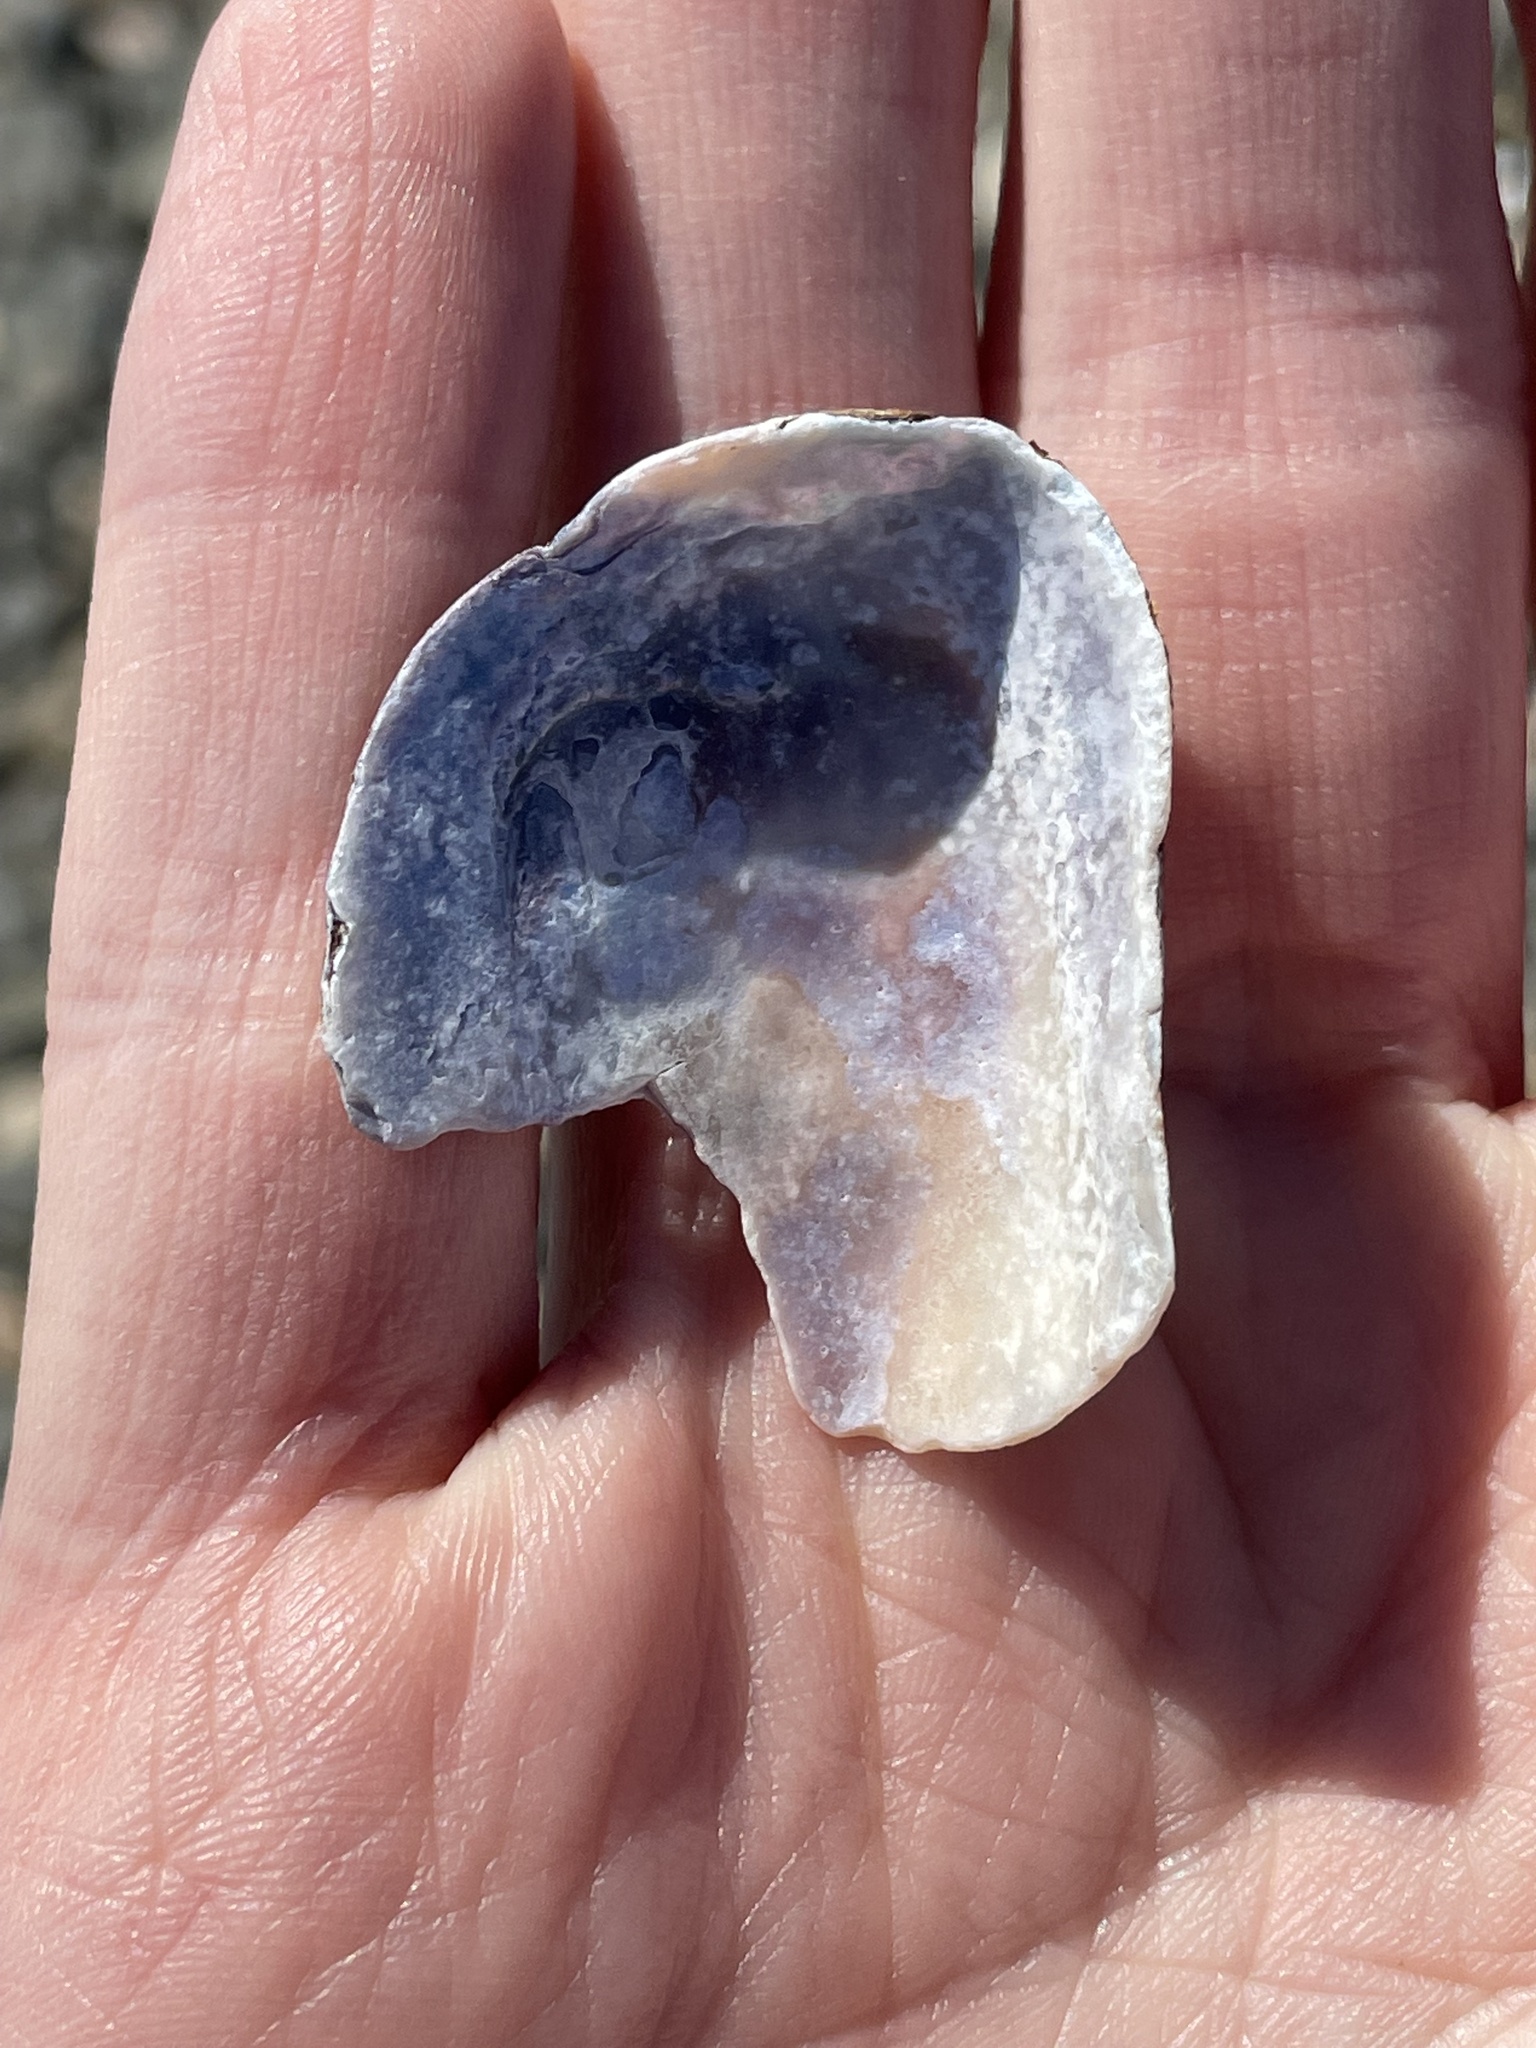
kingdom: Animalia
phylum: Mollusca
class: Bivalvia
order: Mytilida
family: Mytilidae
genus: Geukensia
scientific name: Geukensia demissa
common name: Ribbed mussel
